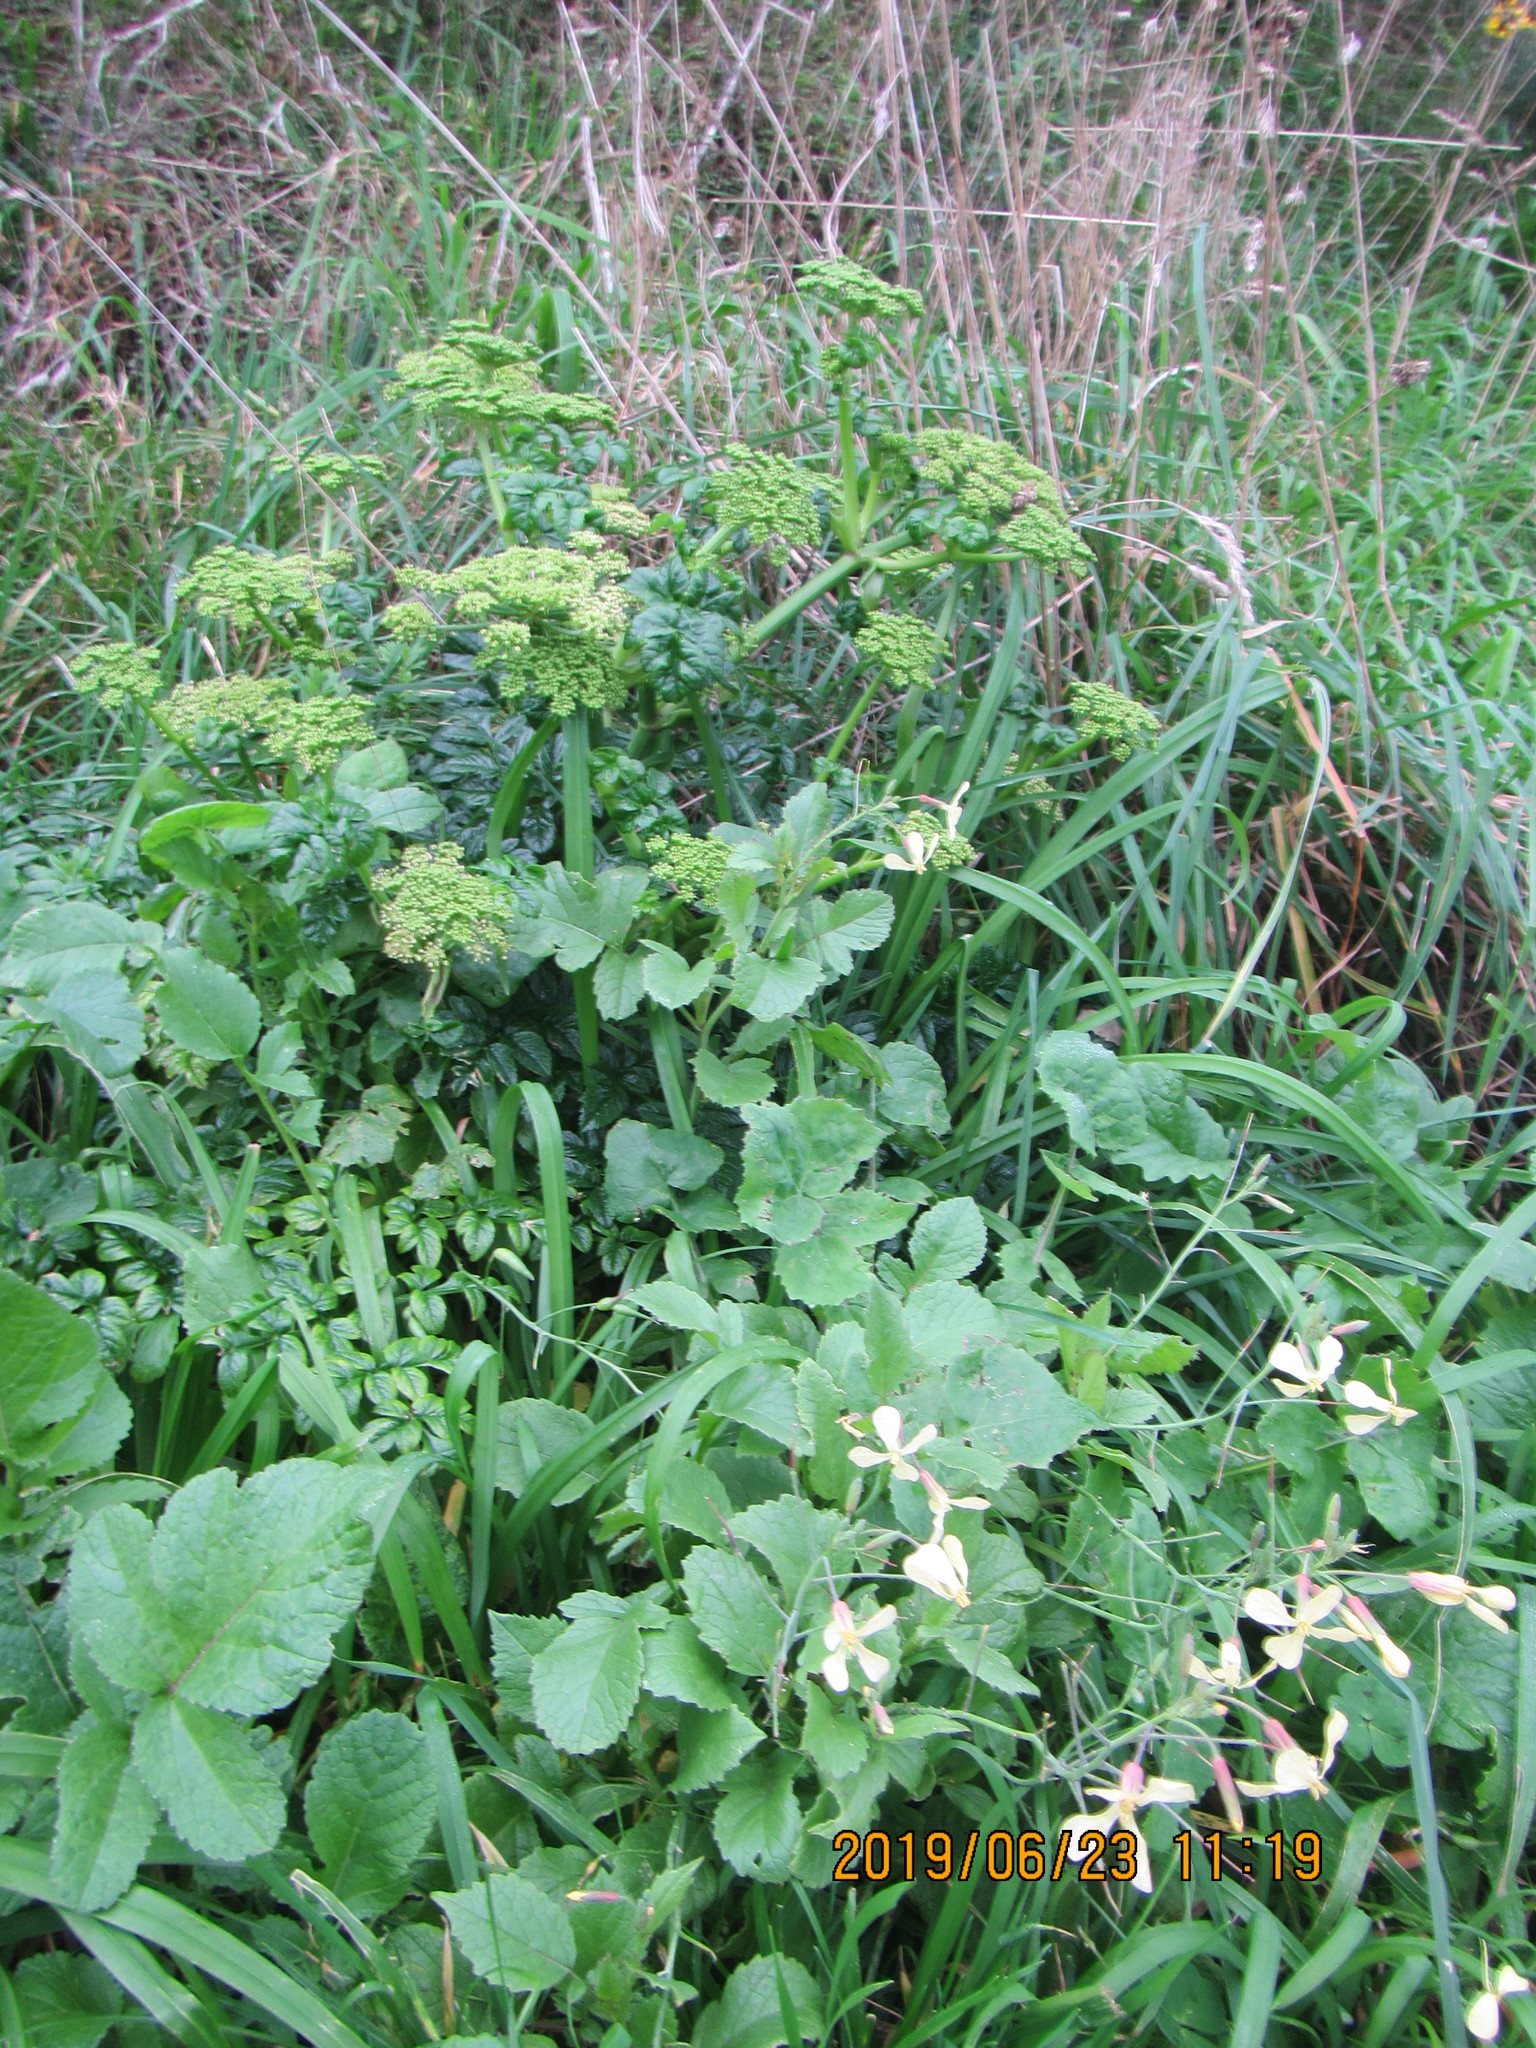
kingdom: Plantae
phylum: Tracheophyta
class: Magnoliopsida
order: Brassicales
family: Brassicaceae
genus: Raphanus
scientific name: Raphanus raphanistrum
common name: Wild radish
